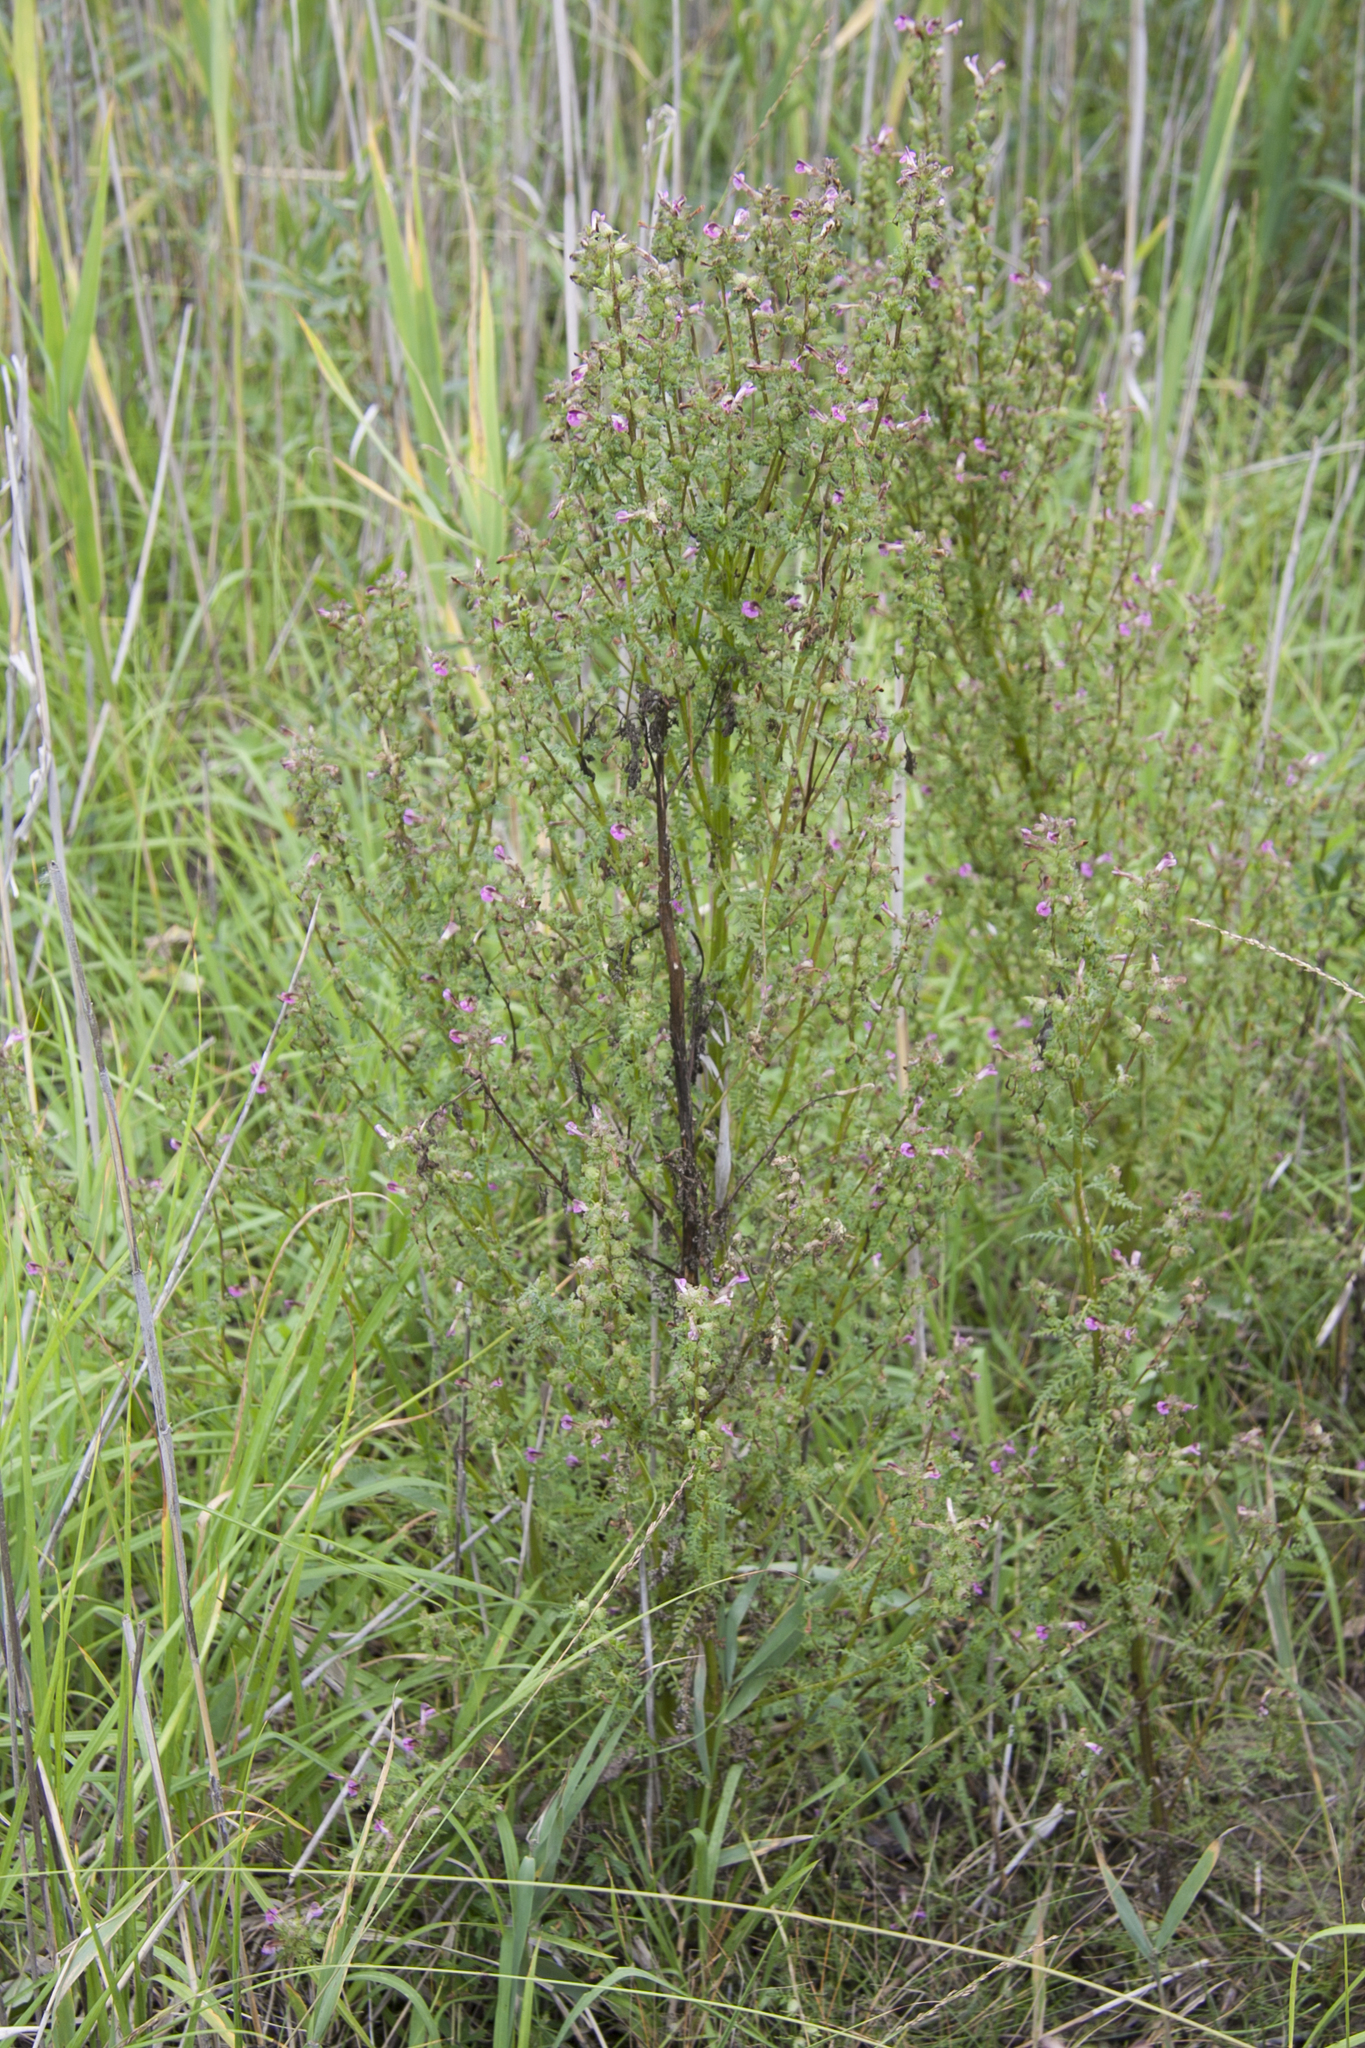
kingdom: Plantae
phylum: Tracheophyta
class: Magnoliopsida
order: Lamiales
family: Orobanchaceae
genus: Pedicularis
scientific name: Pedicularis palustris
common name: Marsh lousewort
